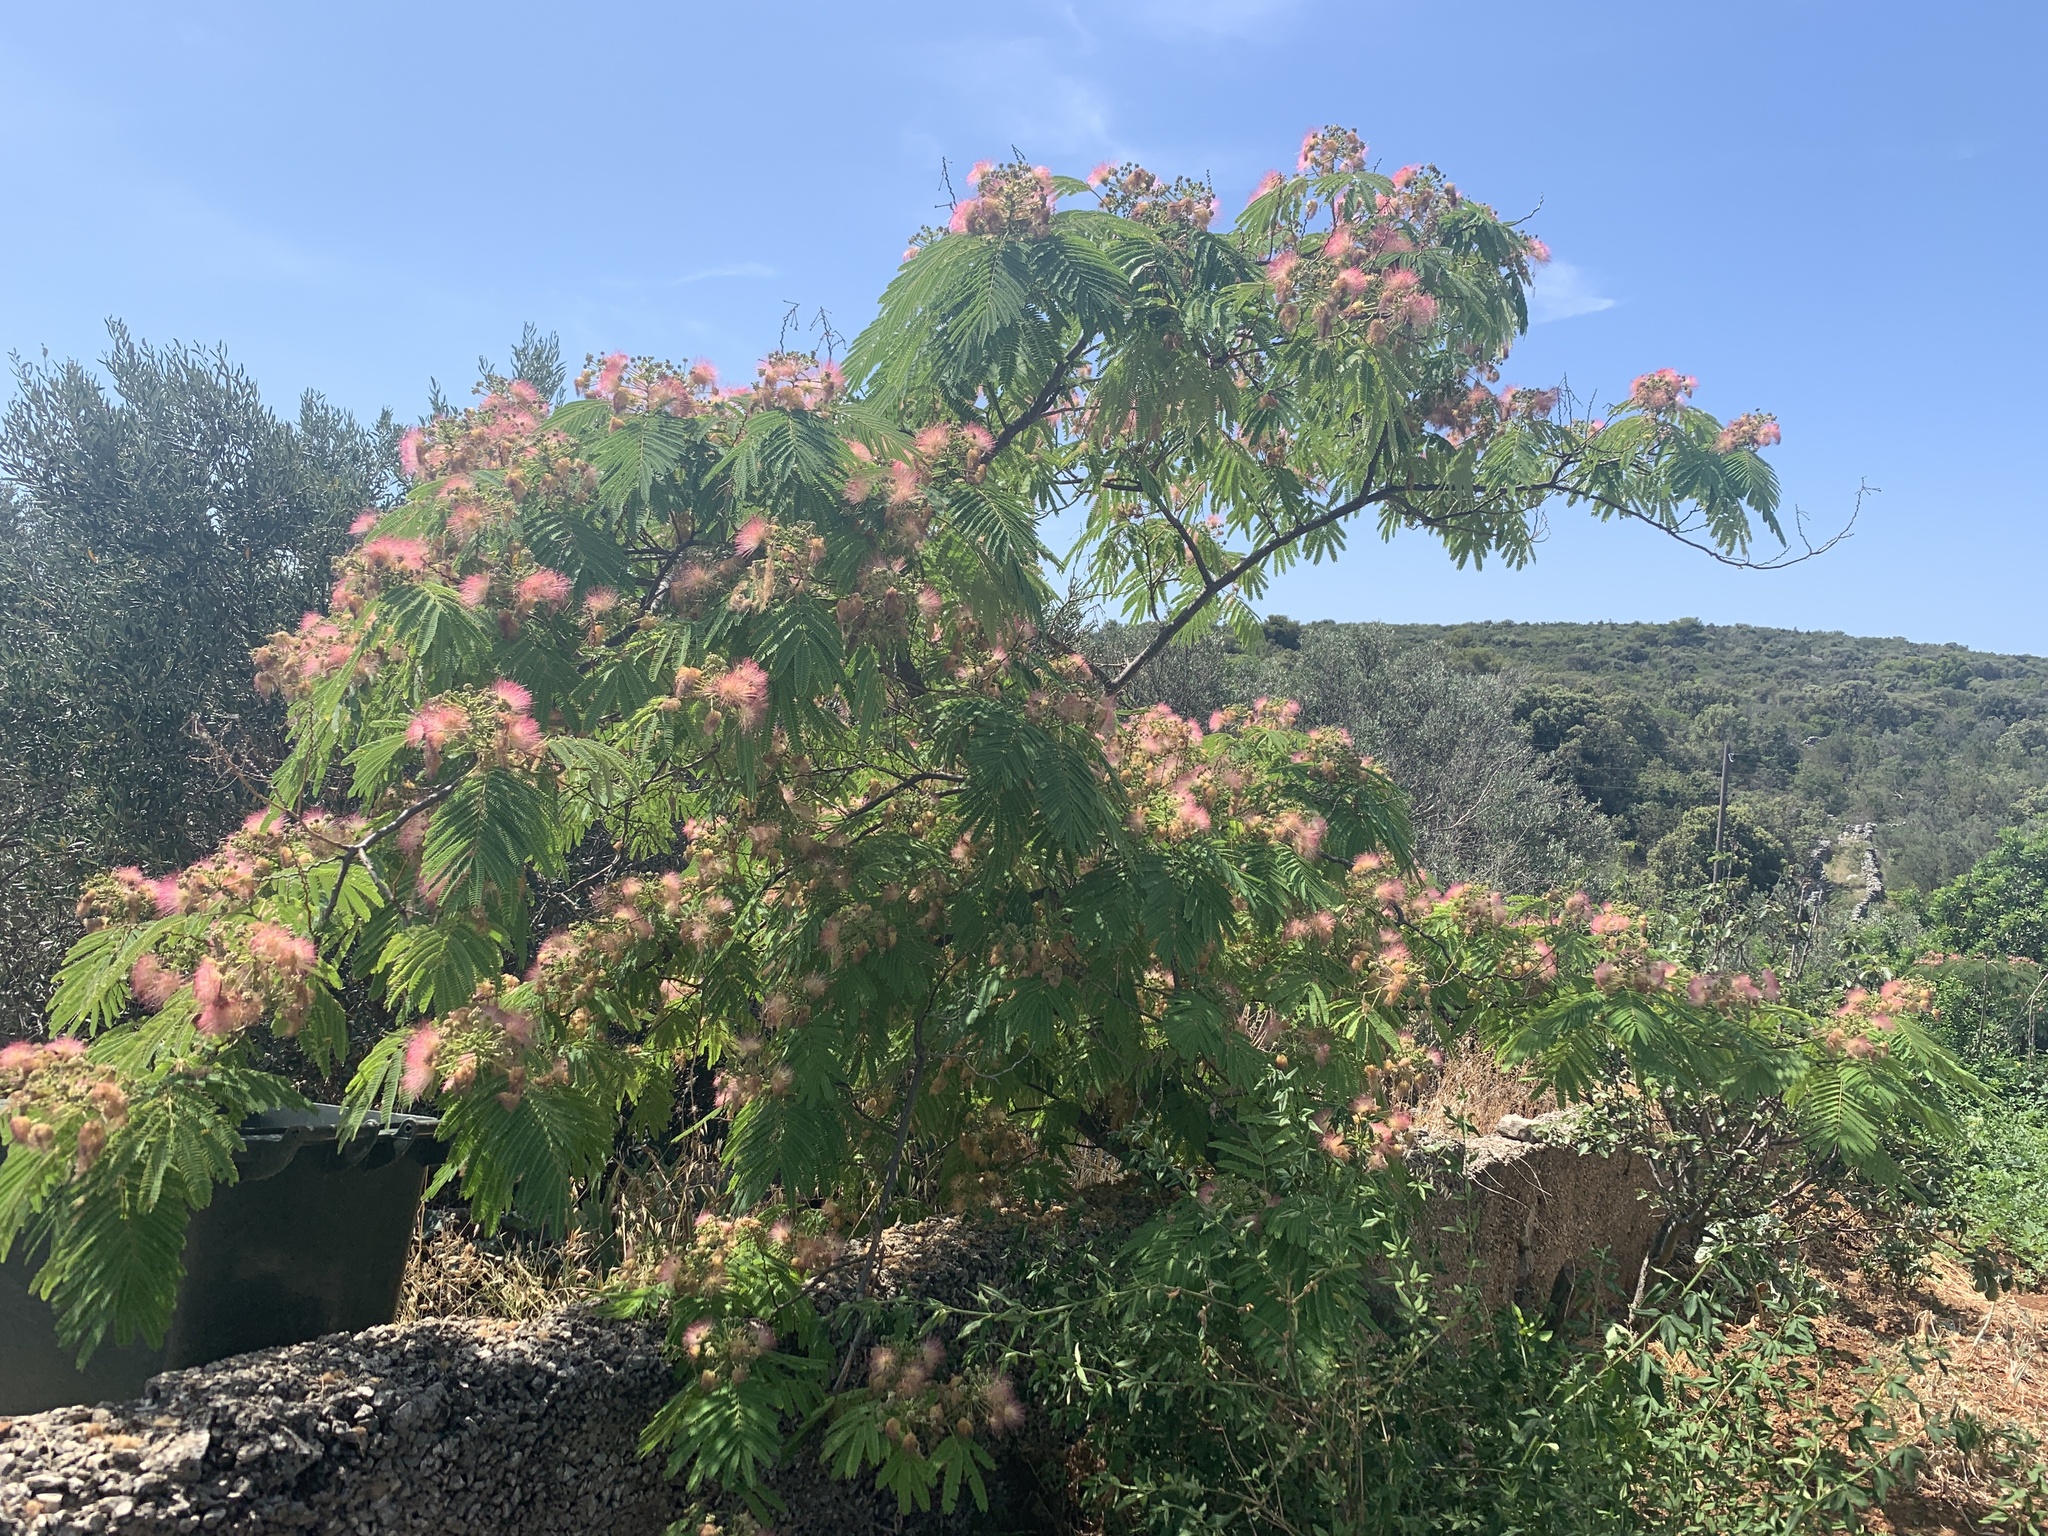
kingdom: Plantae
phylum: Tracheophyta
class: Magnoliopsida
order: Fabales
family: Fabaceae
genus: Albizia
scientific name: Albizia julibrissin
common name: Silktree
